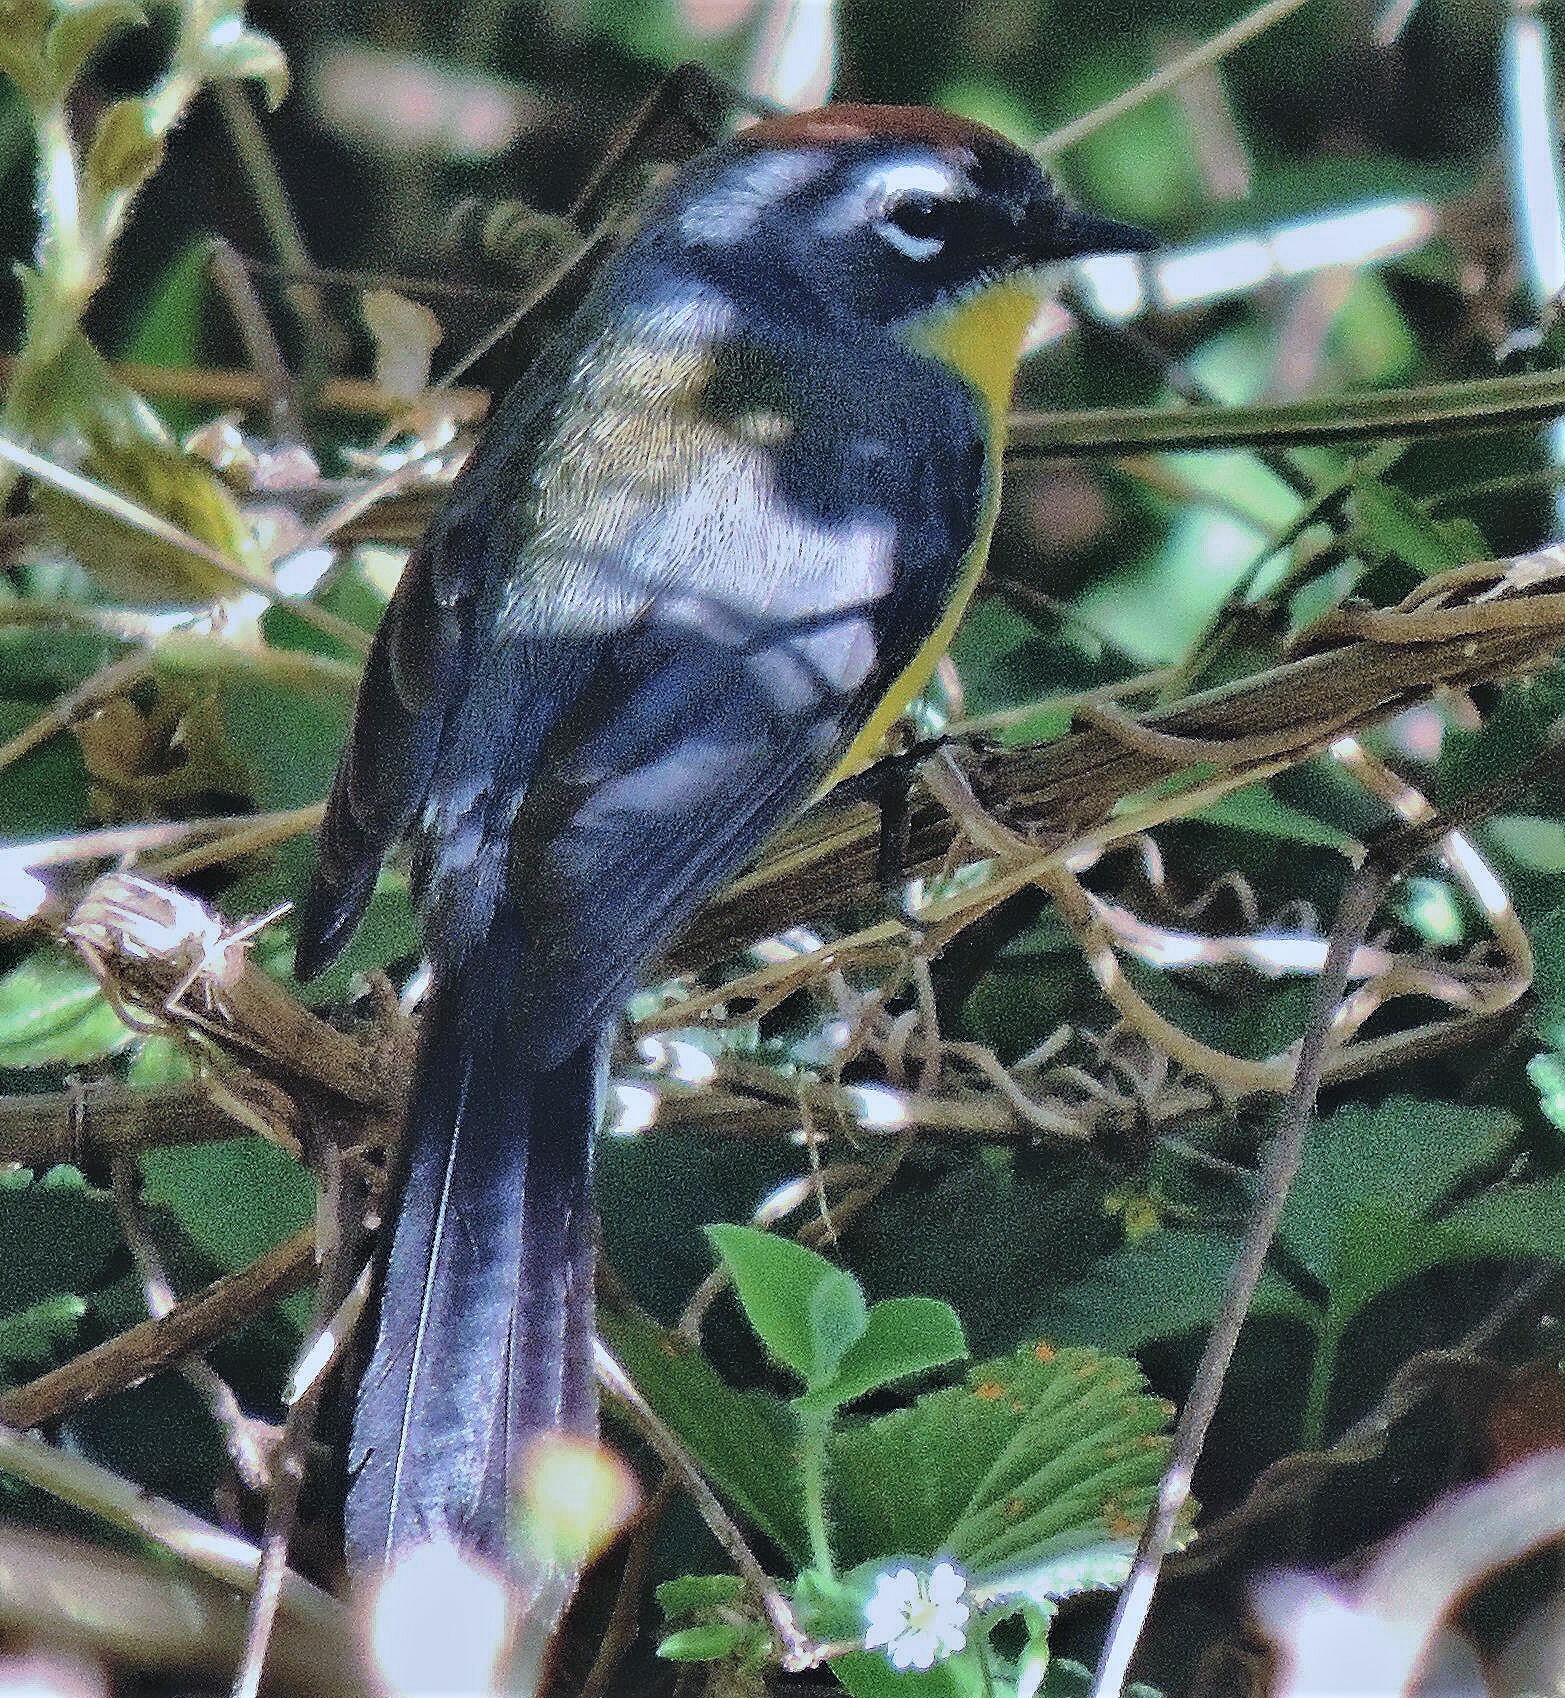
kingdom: Animalia
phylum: Chordata
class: Aves
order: Passeriformes
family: Parulidae
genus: Myioborus
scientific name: Myioborus brunniceps
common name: Brown-capped whitestart
